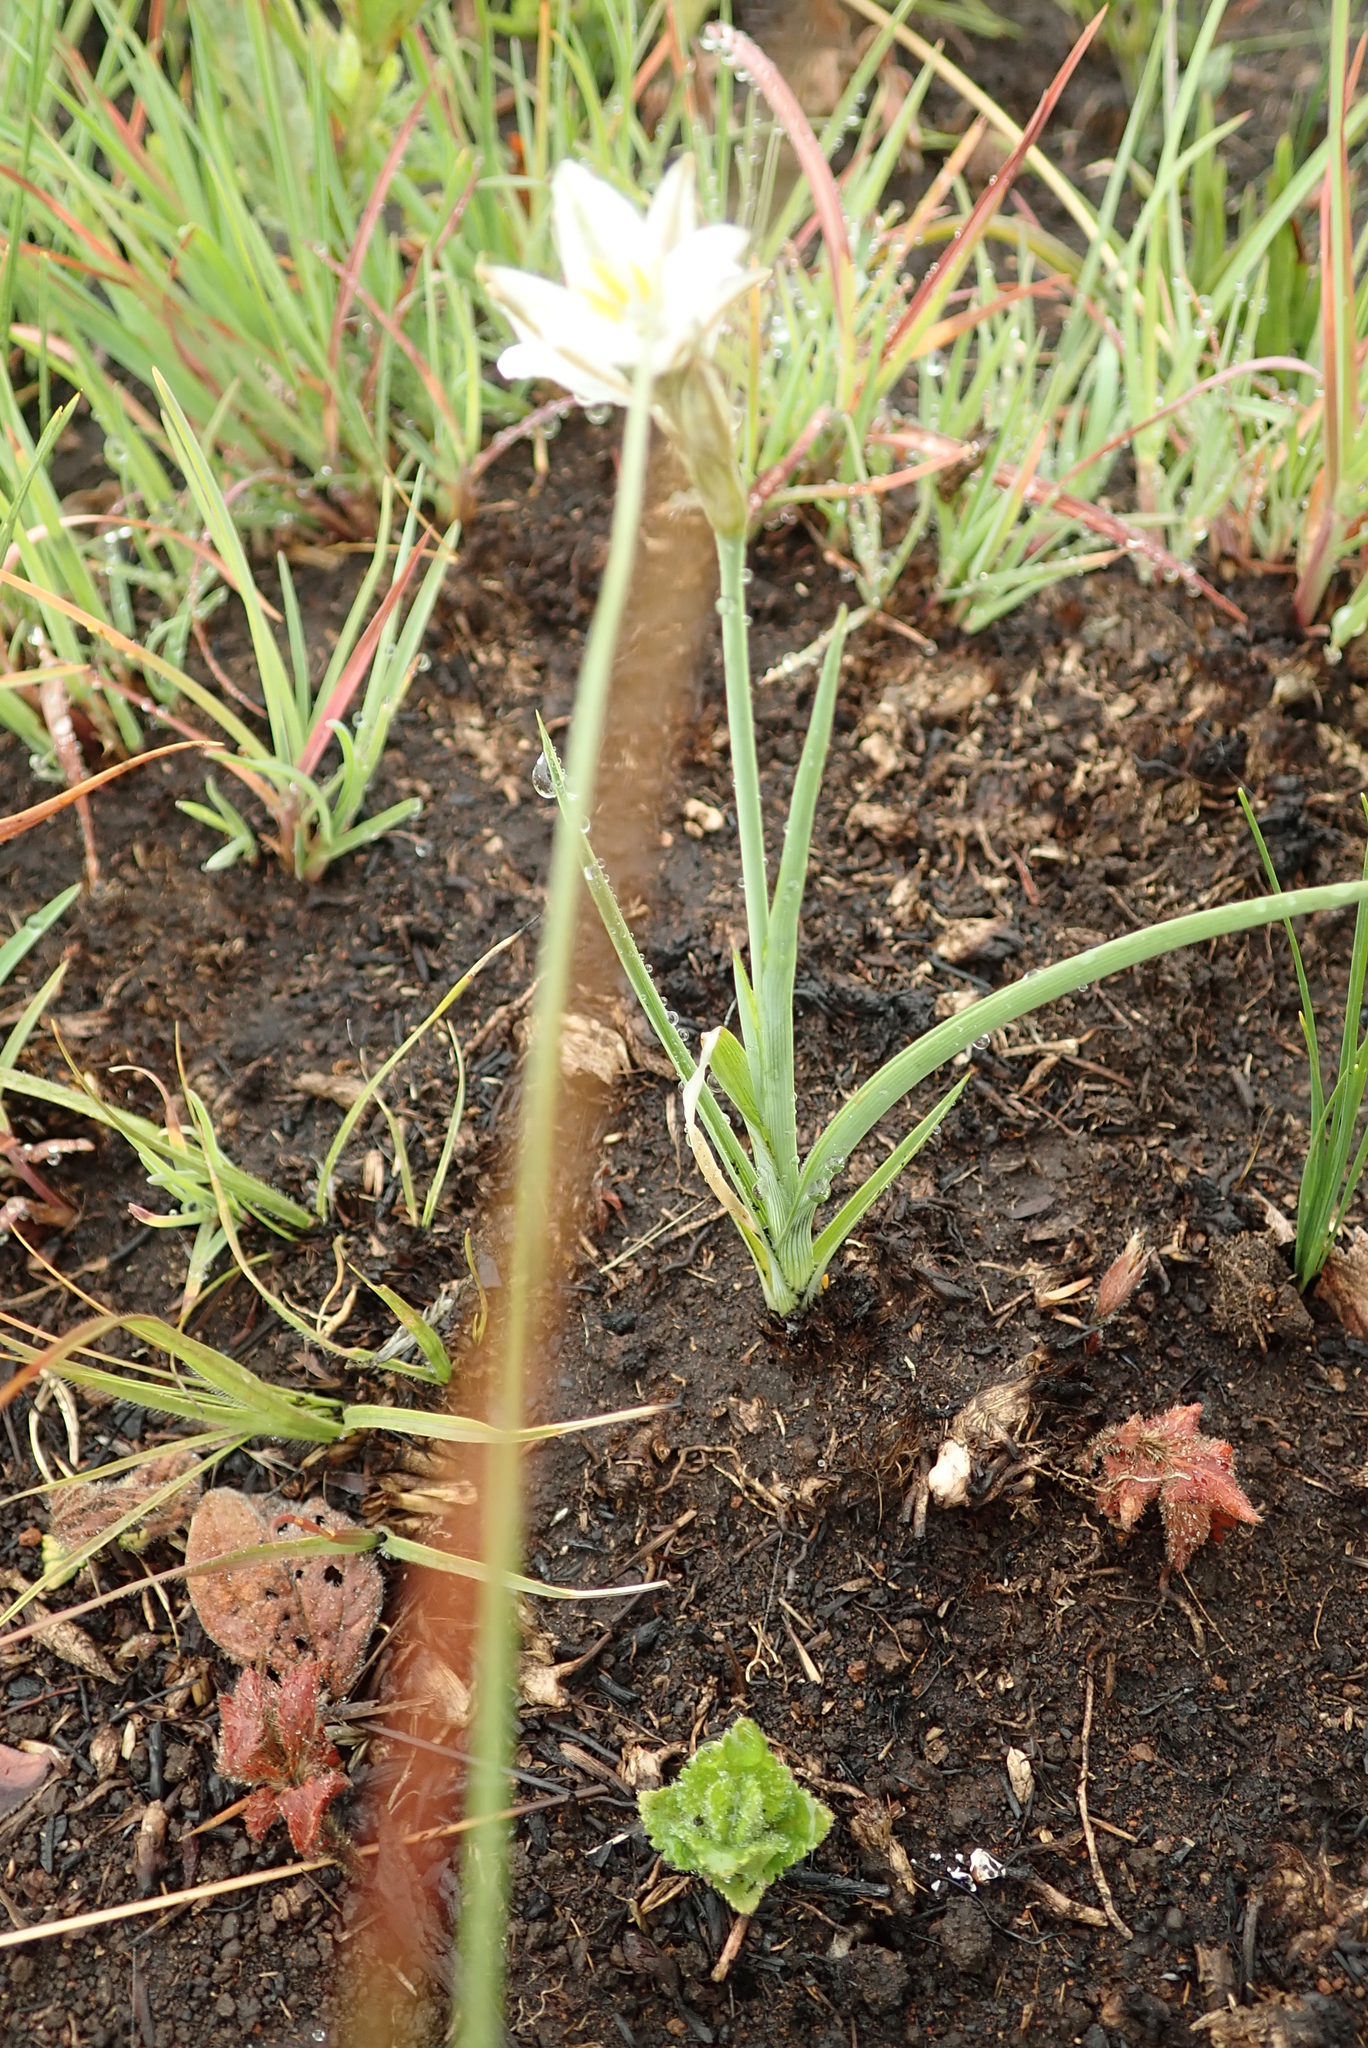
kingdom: Plantae
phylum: Tracheophyta
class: Liliopsida
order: Asparagales
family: Asparagaceae
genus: Chlorophytum
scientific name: Chlorophytum cooperi
